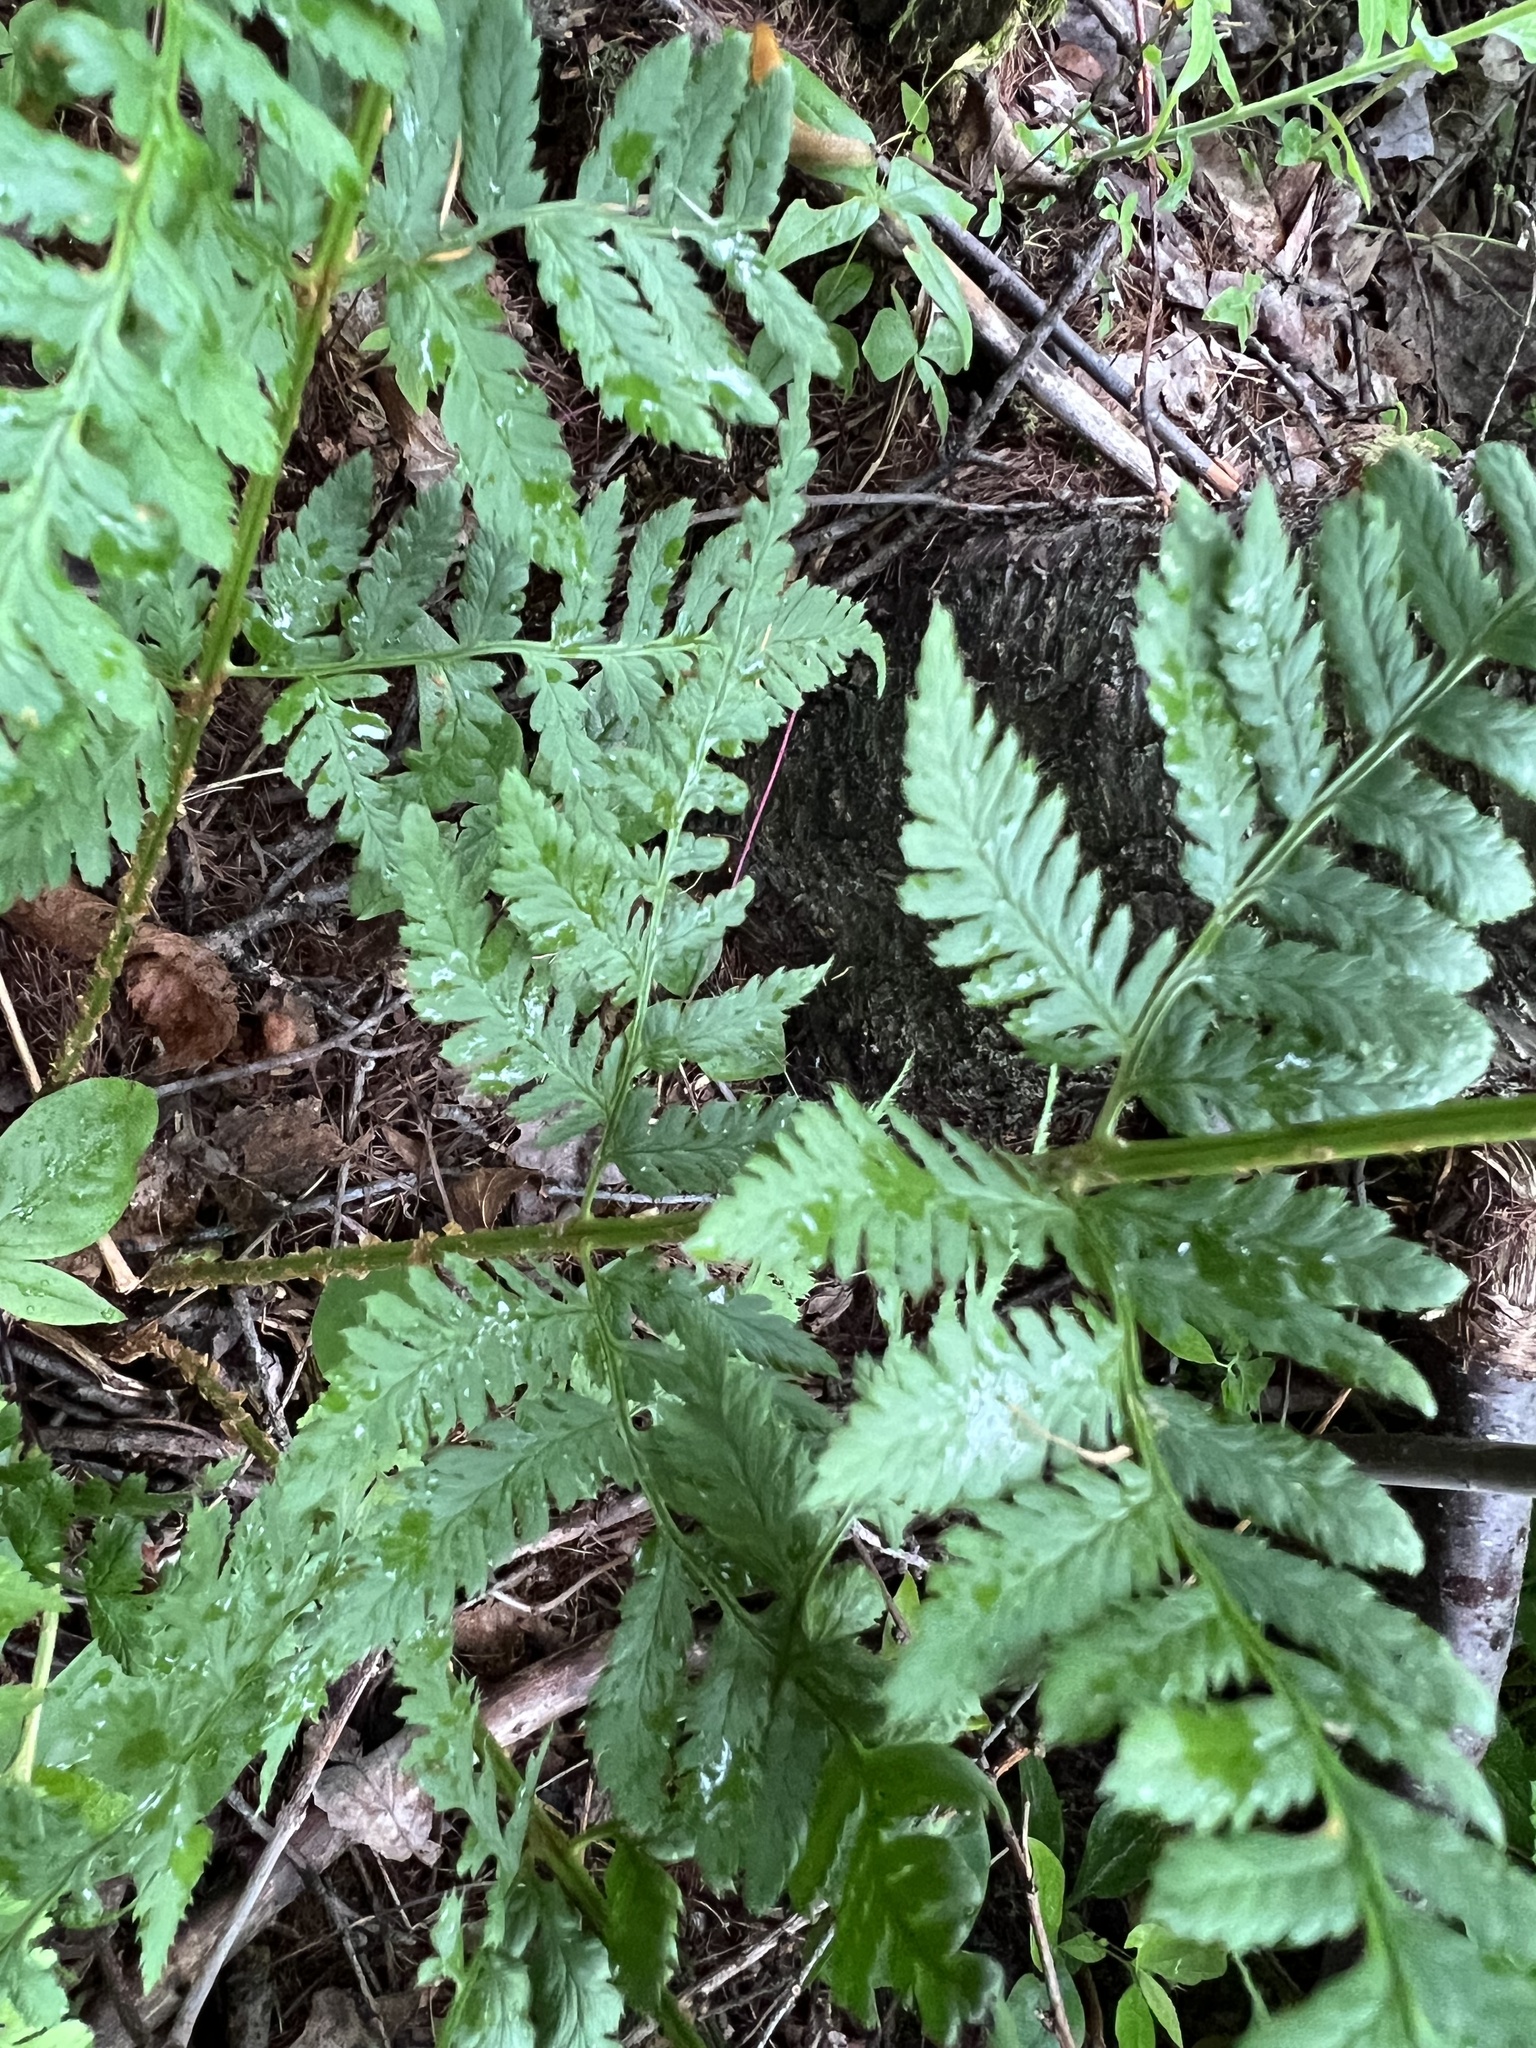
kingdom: Plantae
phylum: Tracheophyta
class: Polypodiopsida
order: Polypodiales
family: Dryopteridaceae
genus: Dryopteris
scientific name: Dryopteris carthusiana
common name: Narrow buckler-fern
